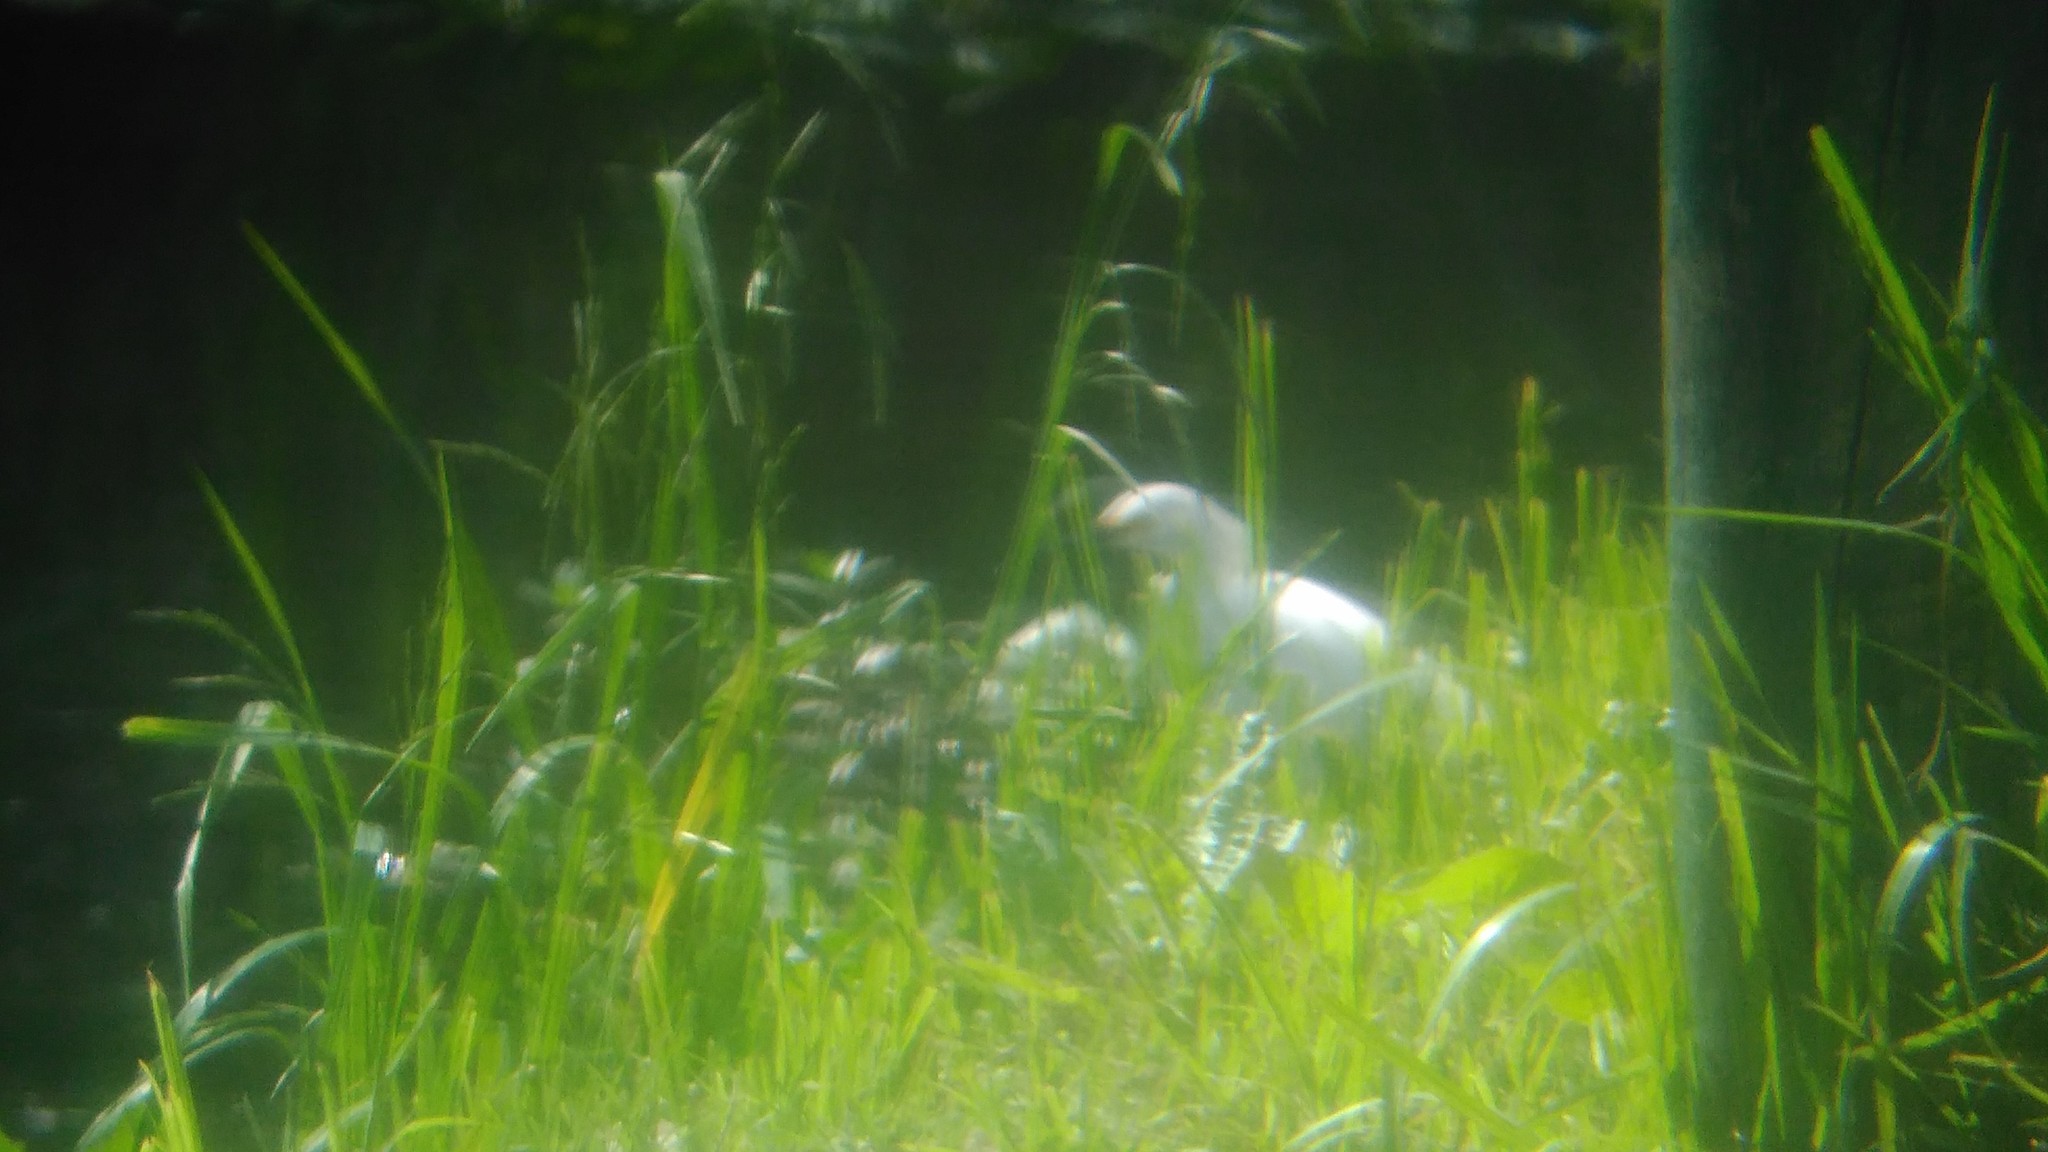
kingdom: Animalia
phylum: Chordata
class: Aves
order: Pelecaniformes
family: Ardeidae
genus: Egretta
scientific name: Egretta thula
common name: Snowy egret
